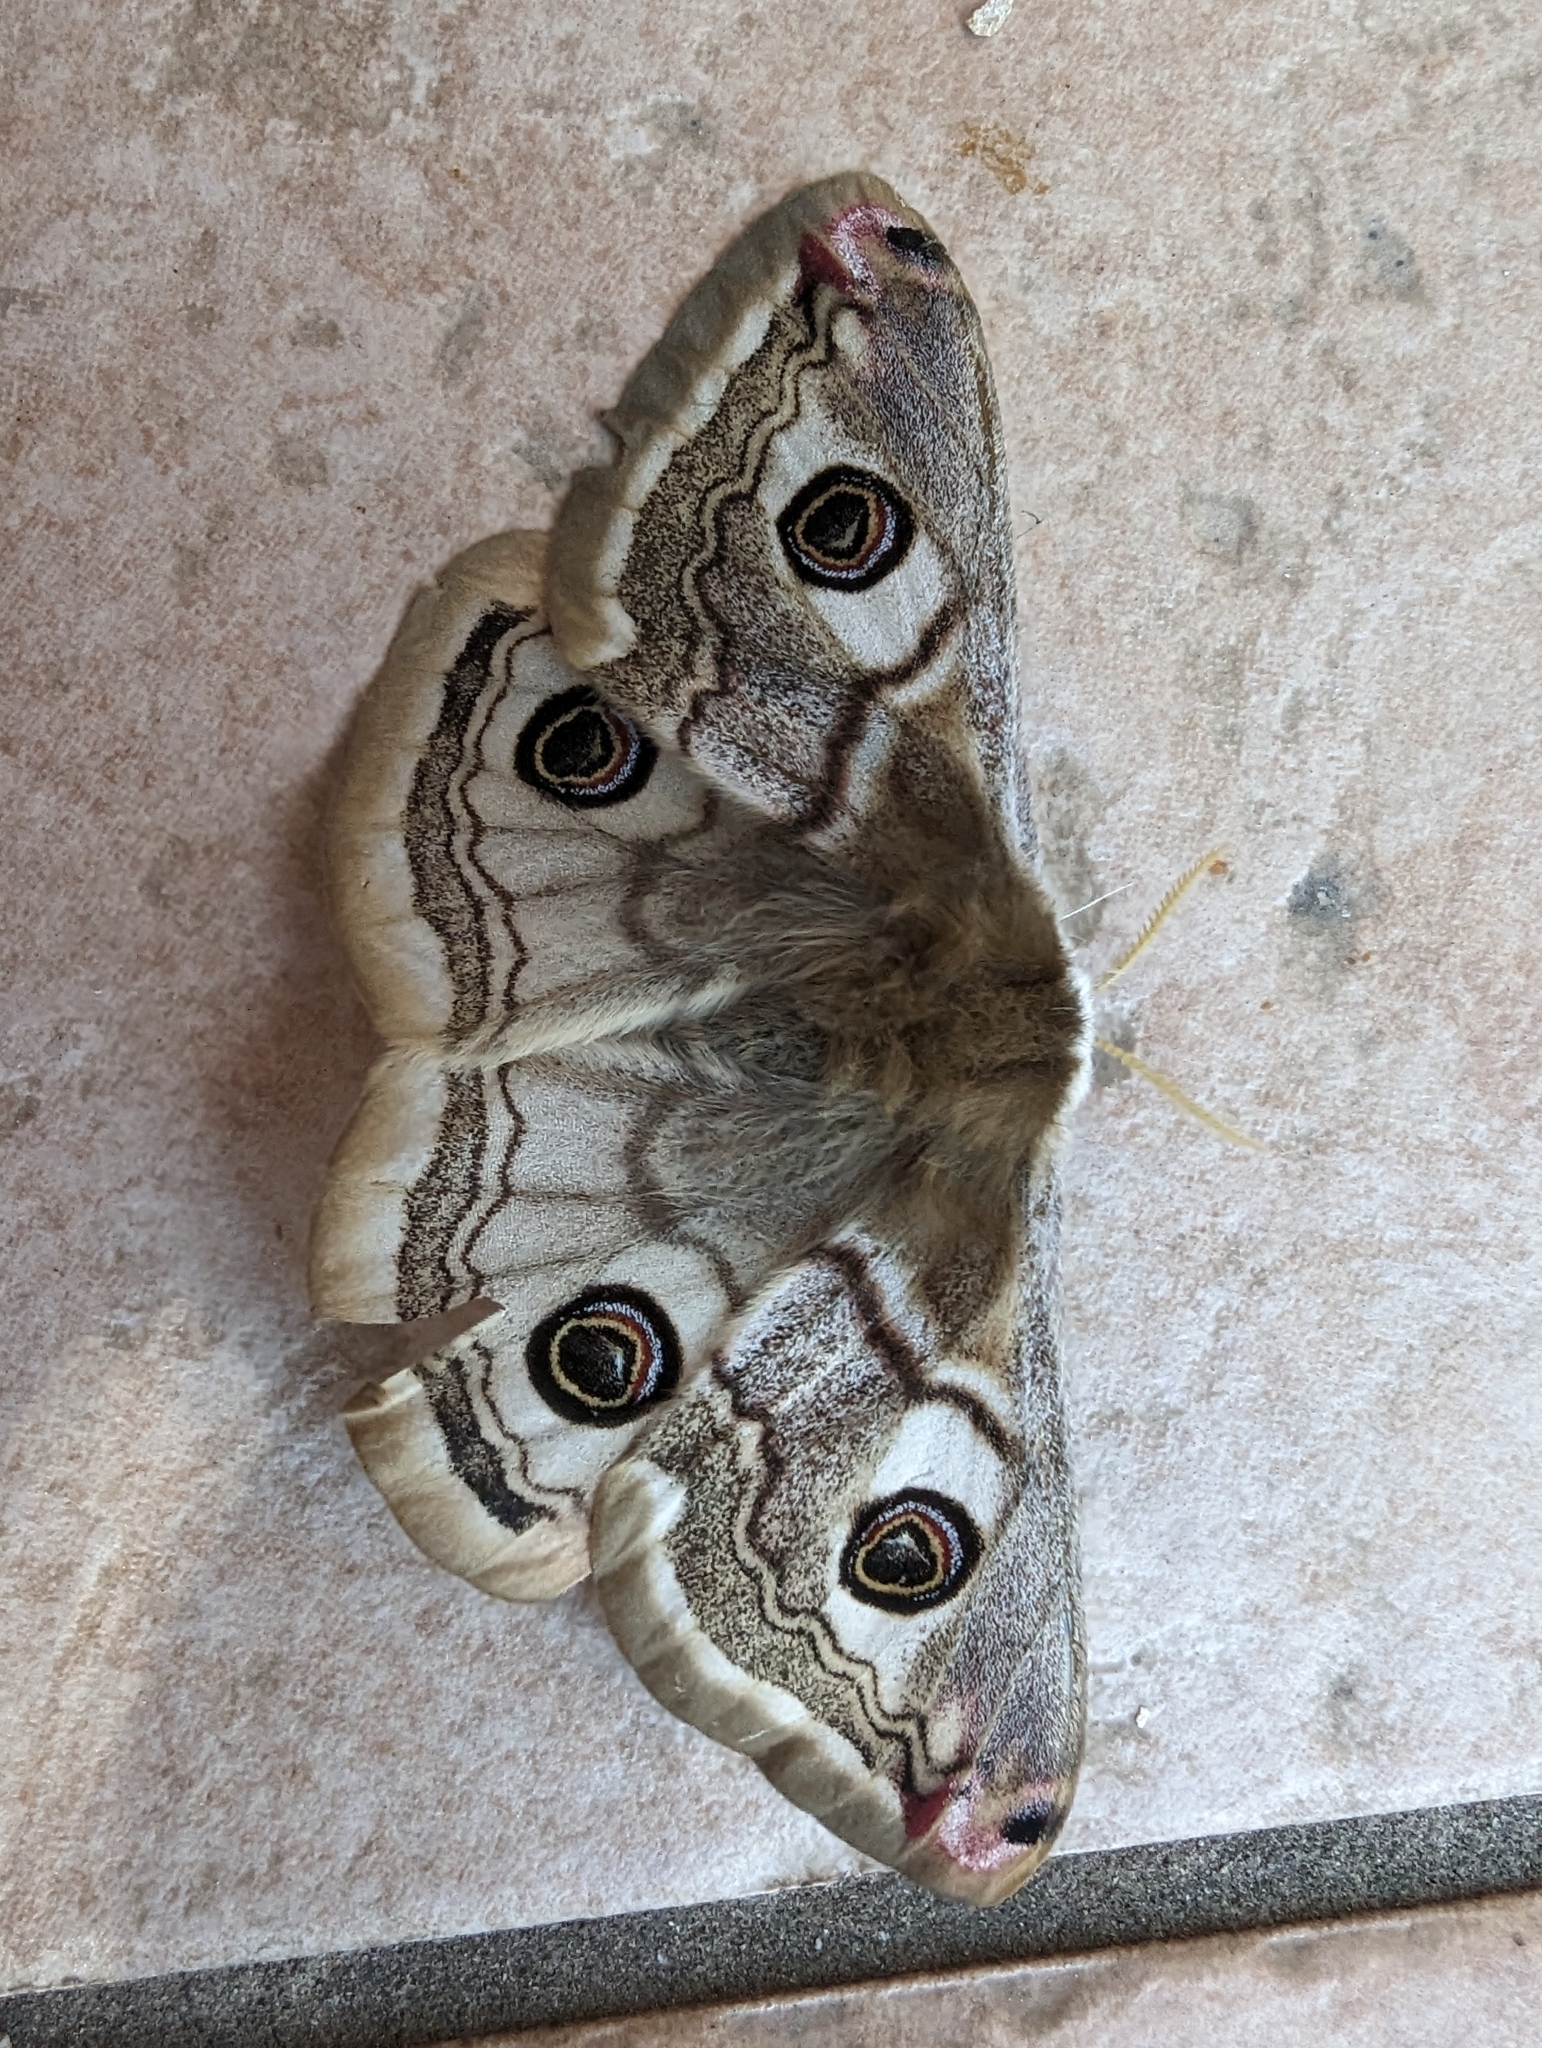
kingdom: Animalia
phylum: Arthropoda
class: Insecta
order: Lepidoptera
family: Saturniidae
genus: Saturnia
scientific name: Saturnia pavoniella
